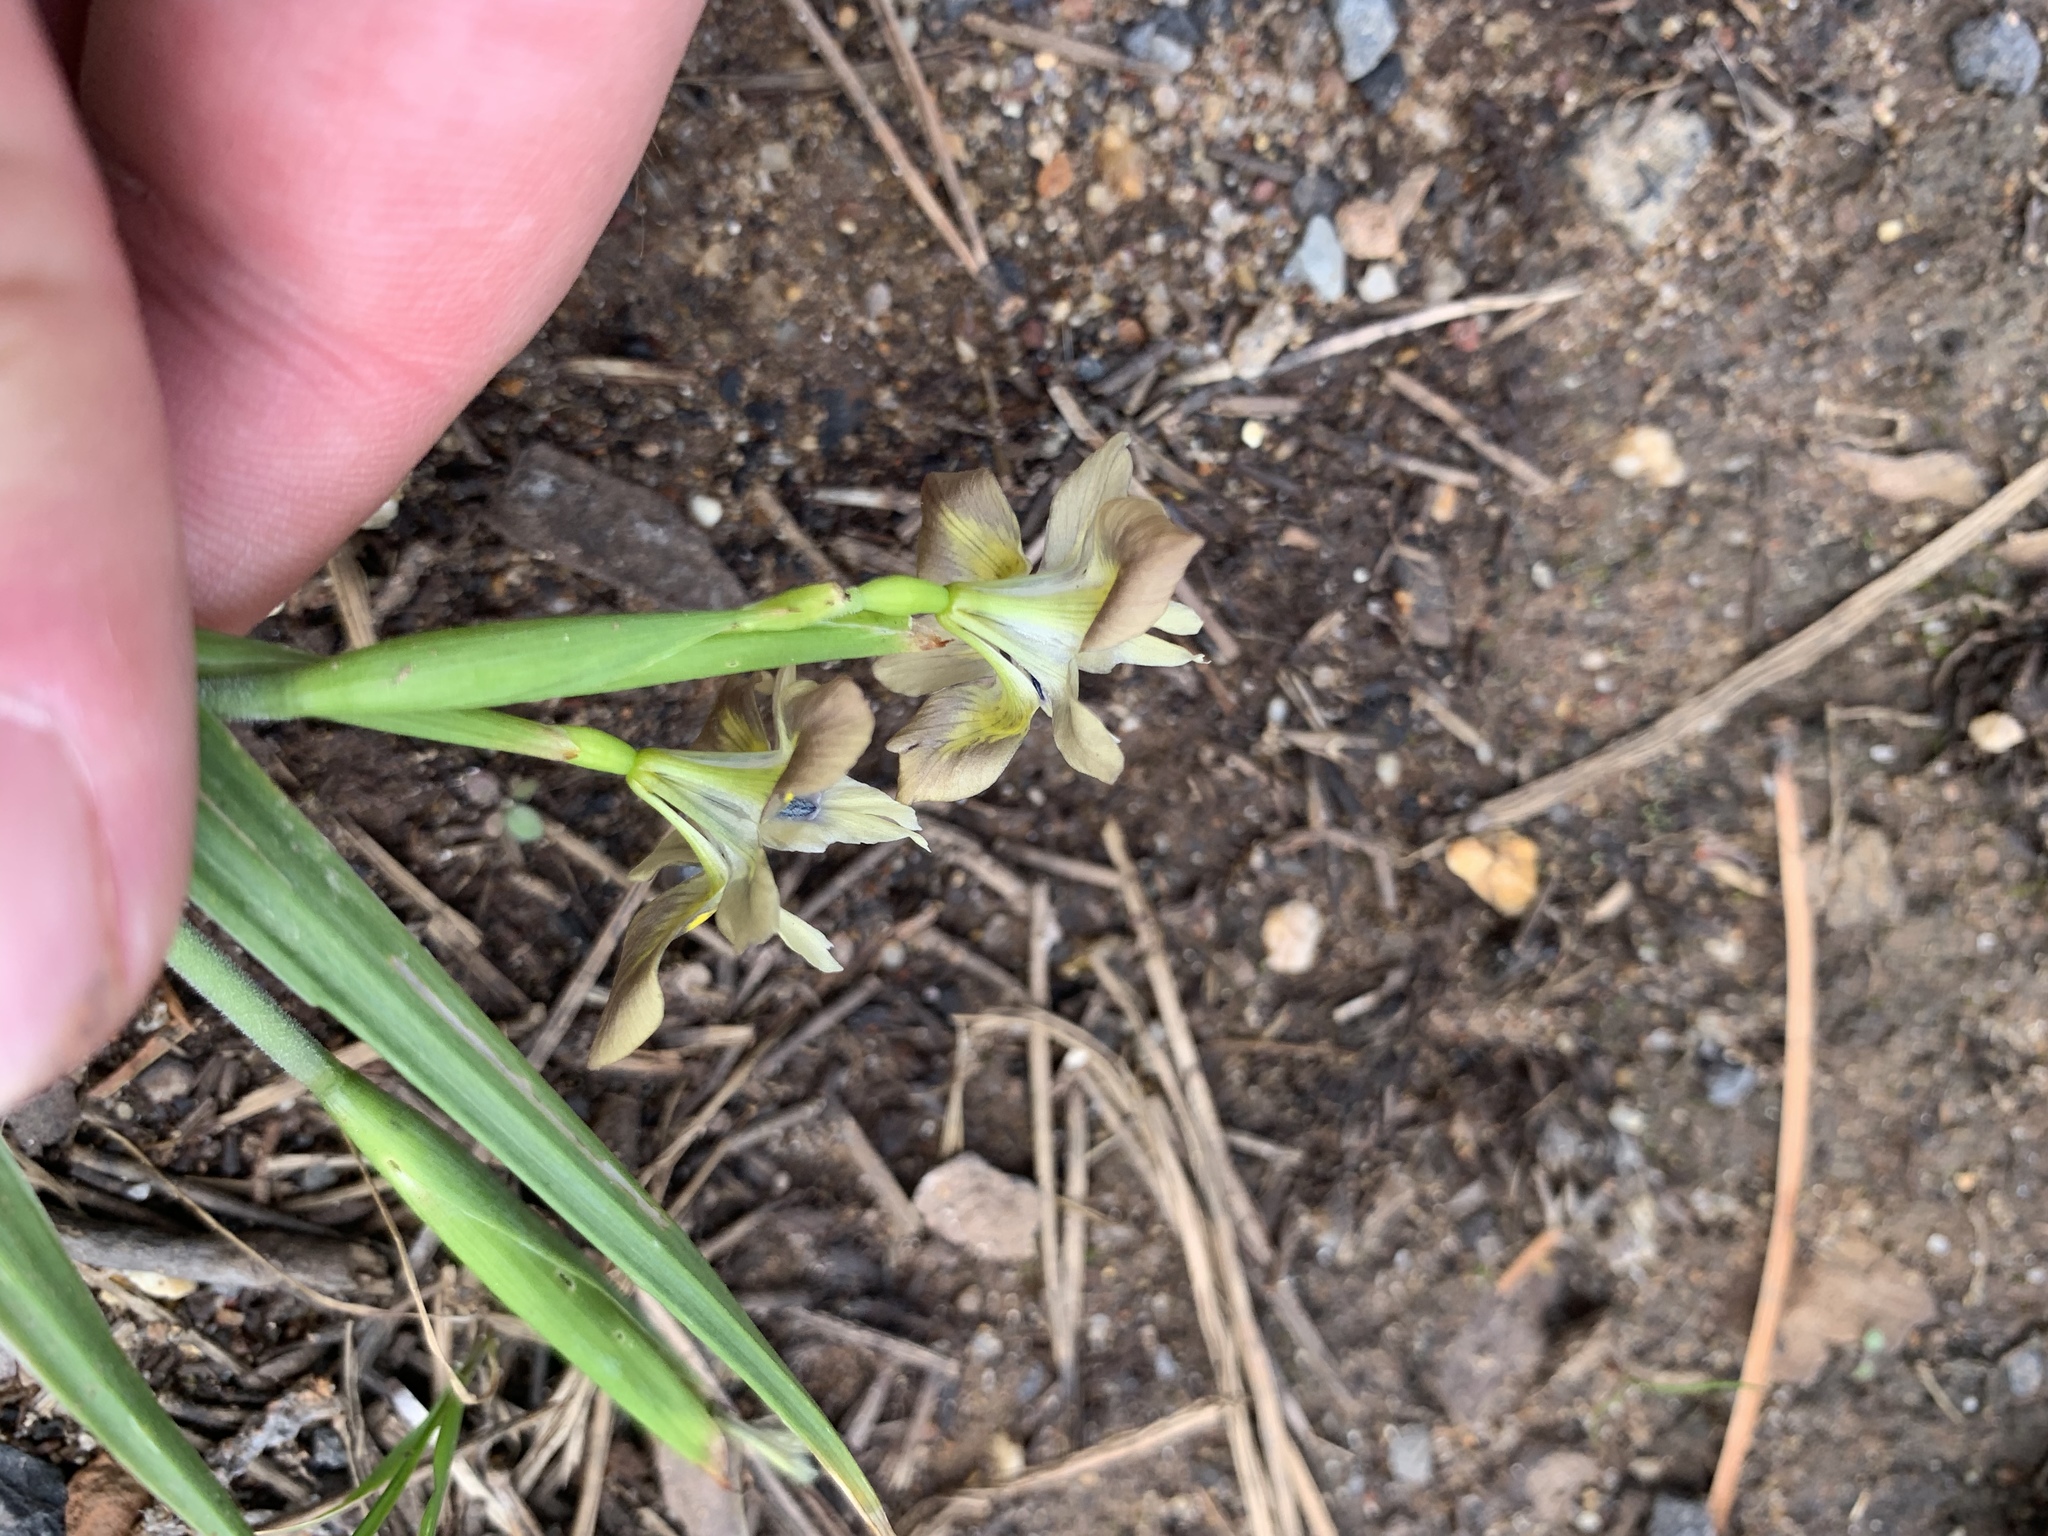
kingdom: Plantae
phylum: Tracheophyta
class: Liliopsida
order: Asparagales
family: Iridaceae
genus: Moraea
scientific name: Moraea vegeta
